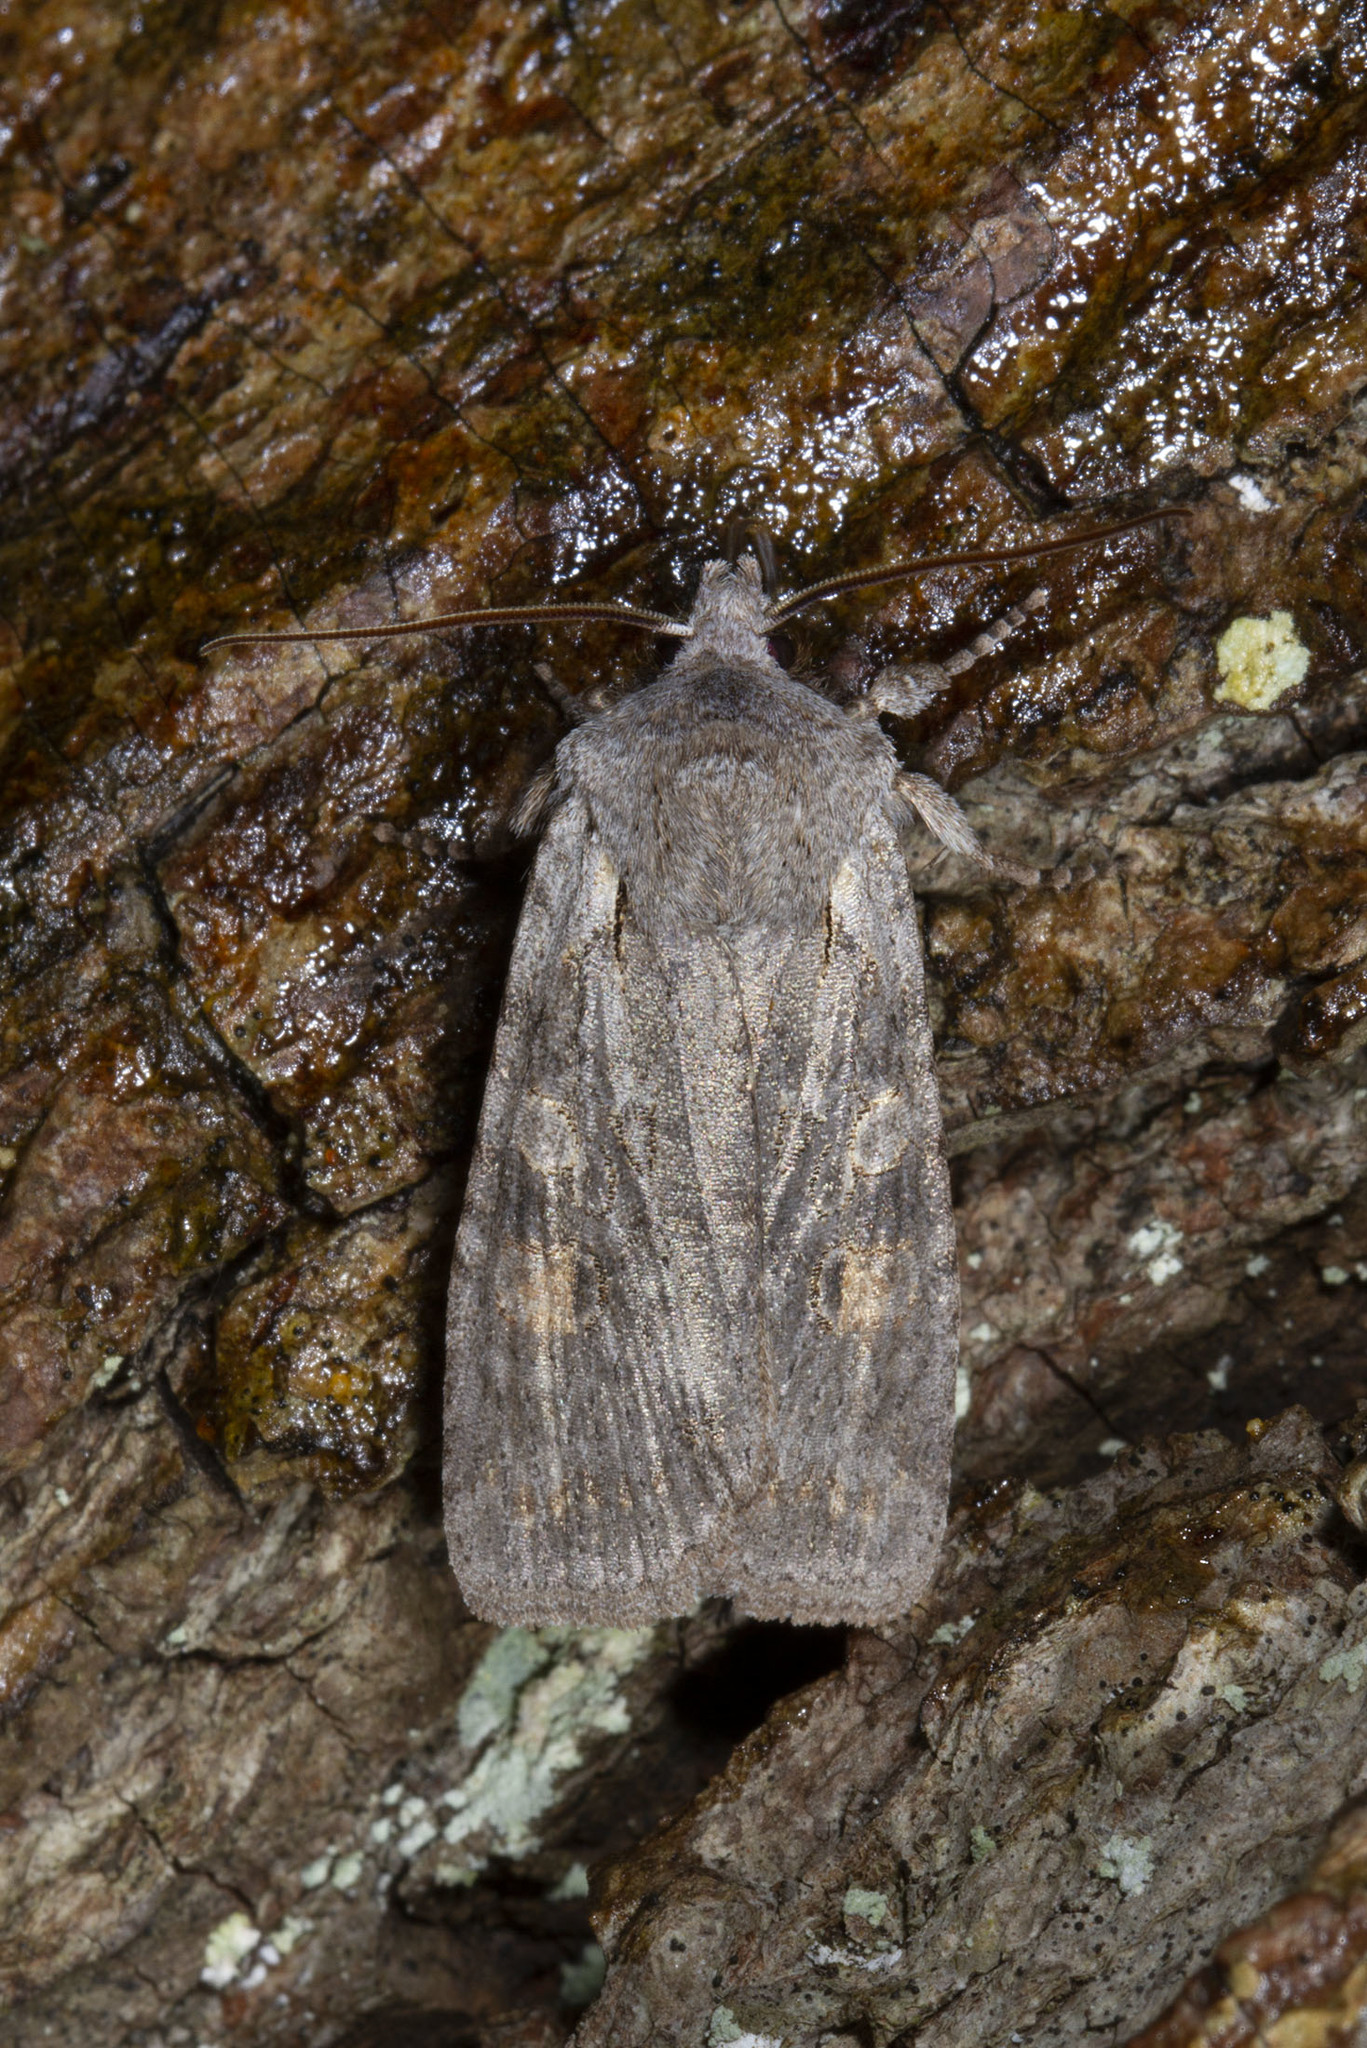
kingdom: Animalia
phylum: Arthropoda
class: Insecta
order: Lepidoptera
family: Noctuidae
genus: Lithophane
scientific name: Lithophane antennata
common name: Ashen pinion
